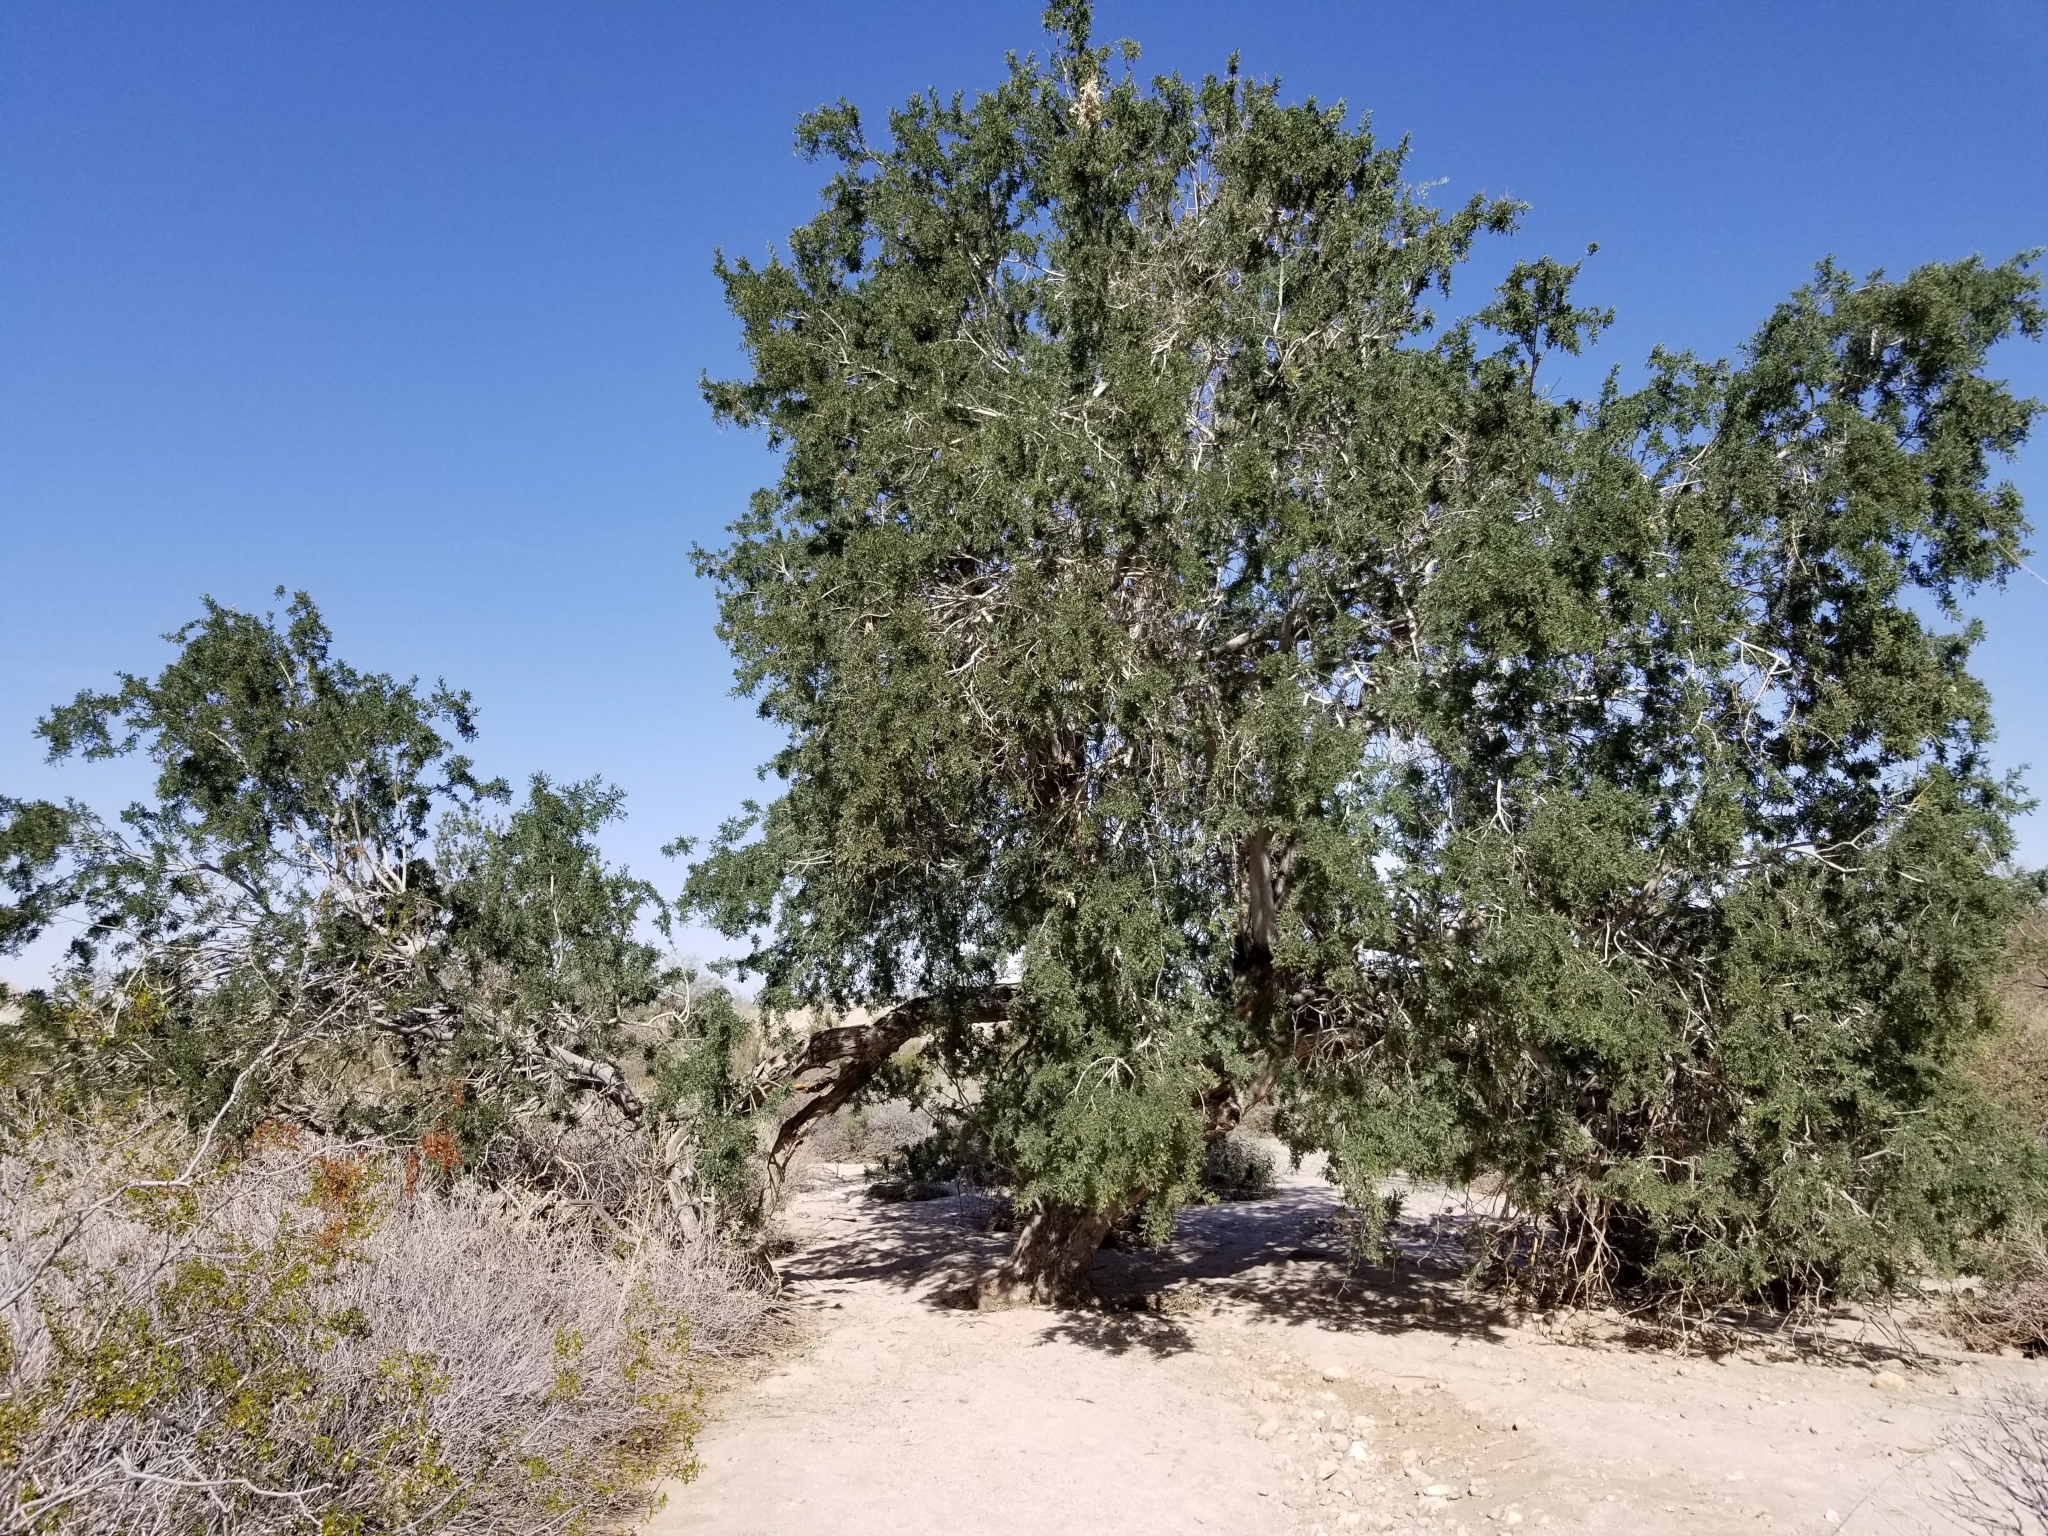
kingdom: Plantae
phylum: Tracheophyta
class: Magnoliopsida
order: Fabales
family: Fabaceae
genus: Olneya
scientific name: Olneya tesota
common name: Desert ironwood
